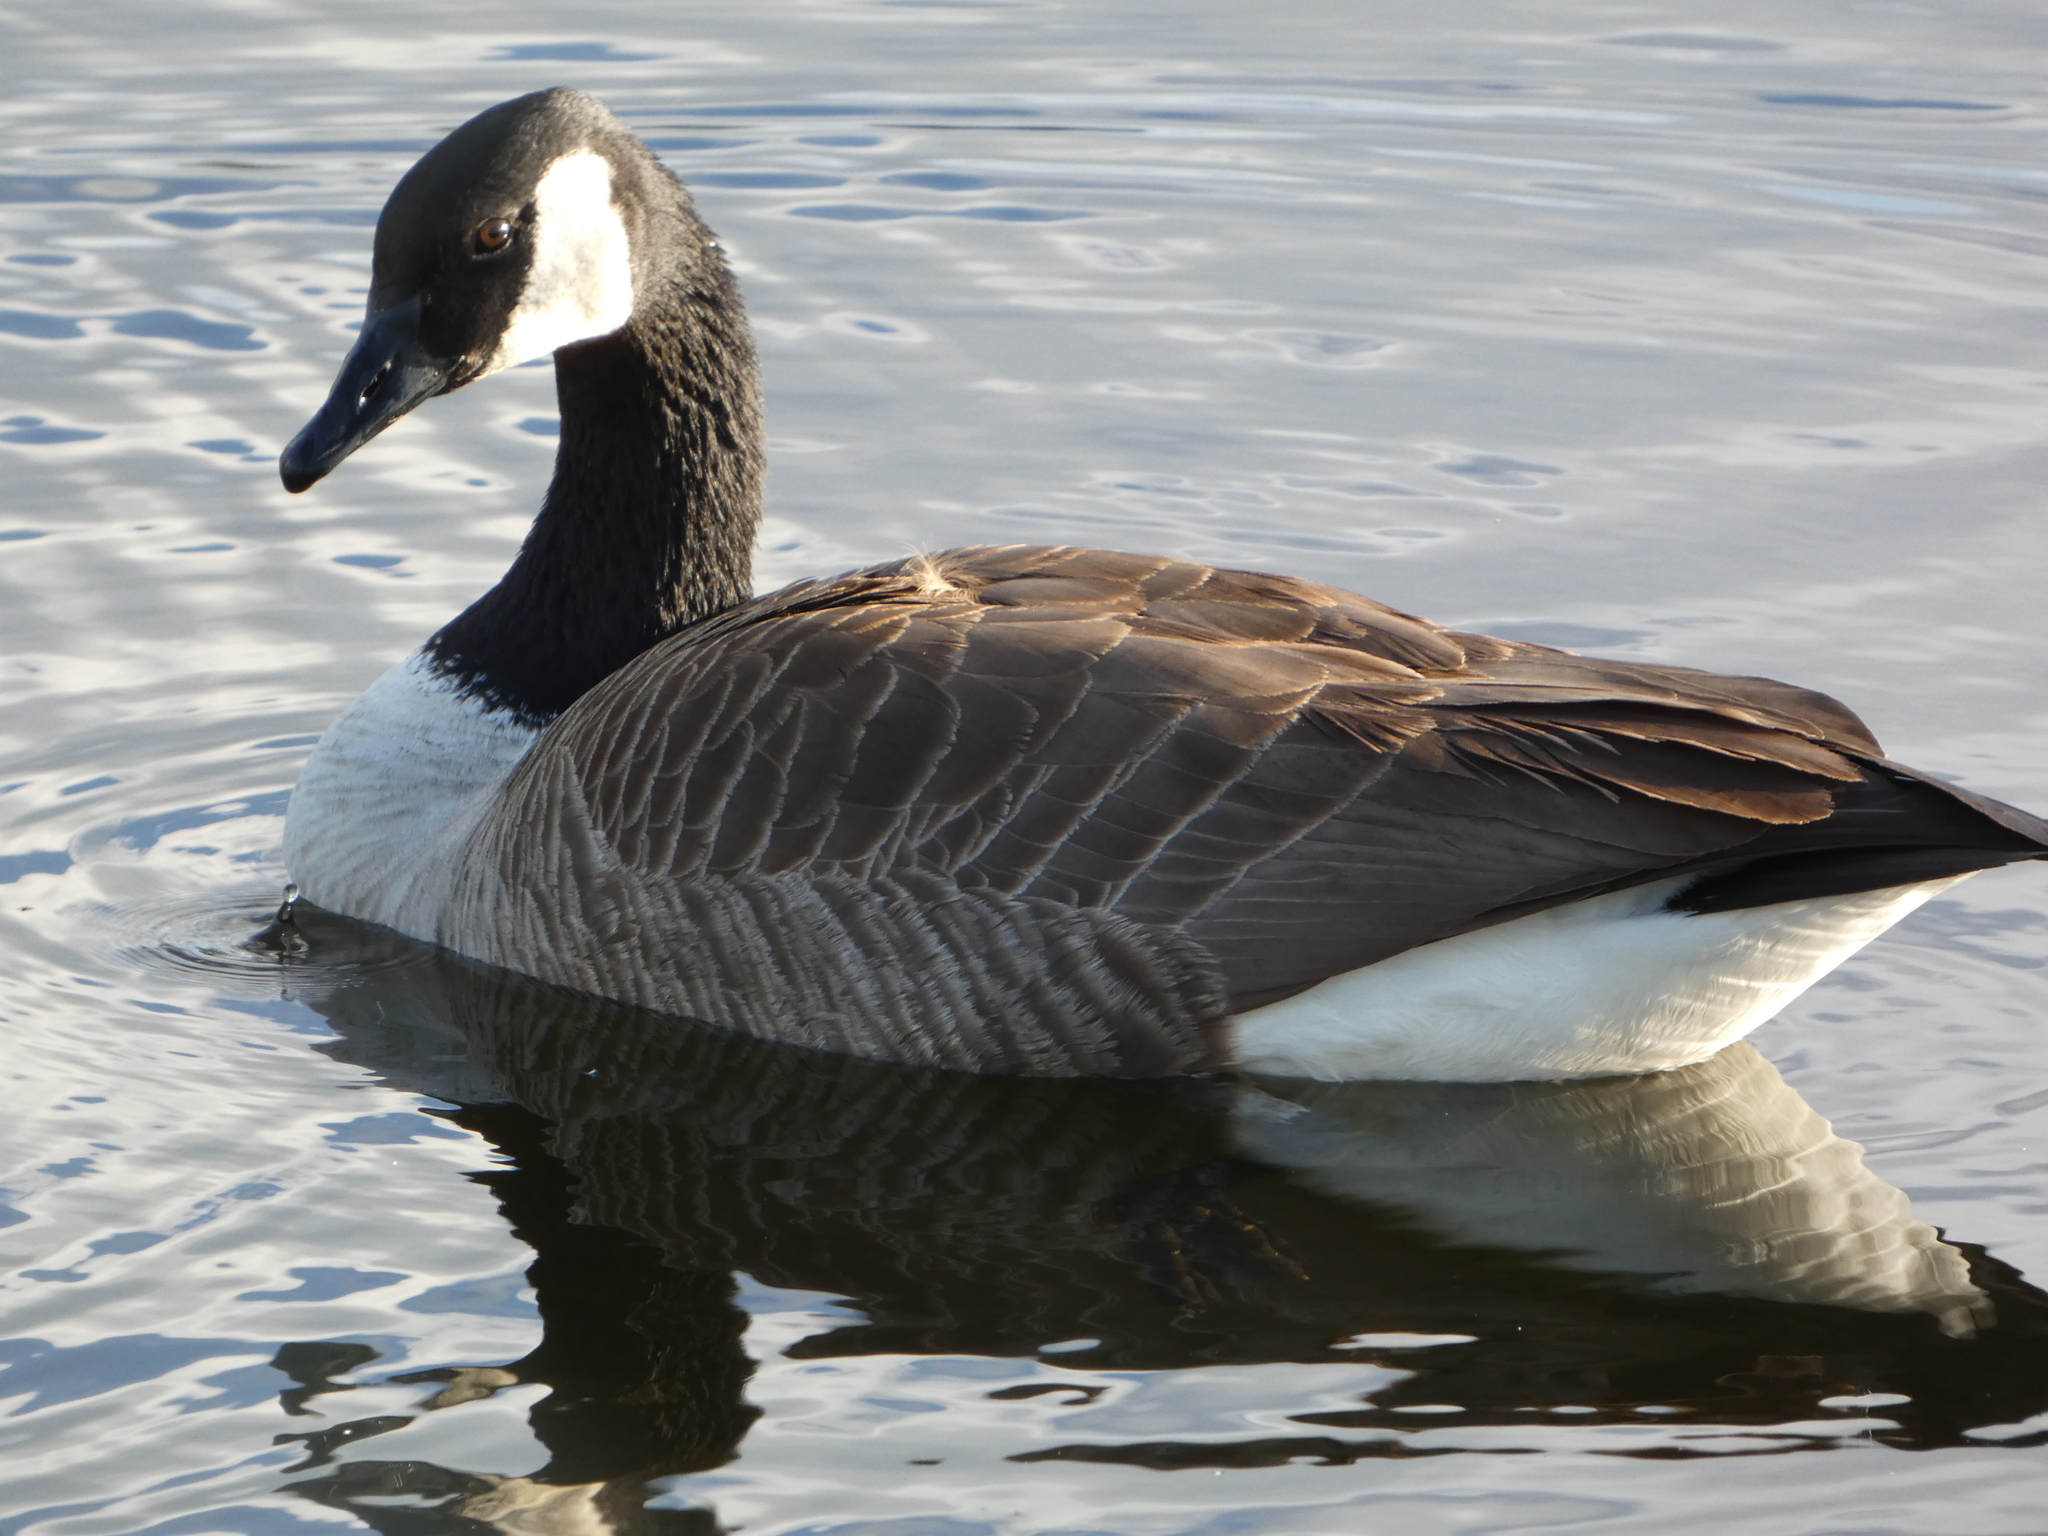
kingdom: Animalia
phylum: Chordata
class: Aves
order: Anseriformes
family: Anatidae
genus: Branta
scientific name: Branta canadensis
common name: Canada goose
